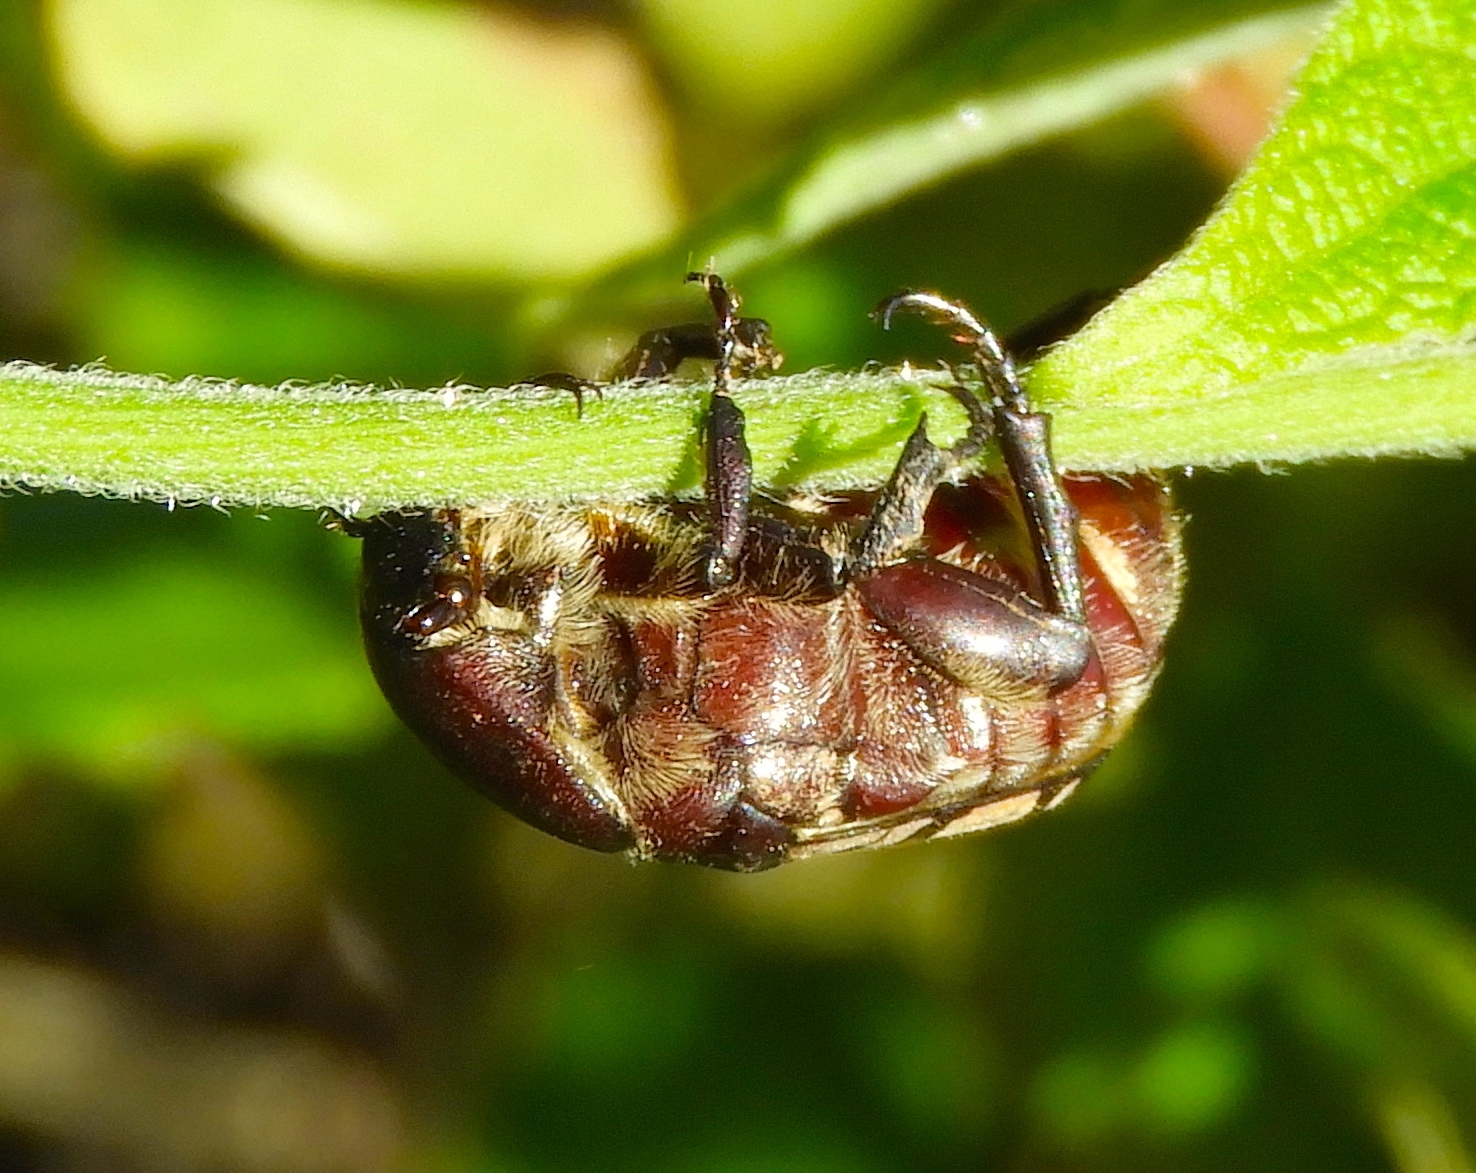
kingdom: Animalia
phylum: Arthropoda
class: Insecta
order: Coleoptera
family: Scarabaeidae
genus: Euphoria
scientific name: Euphoria
